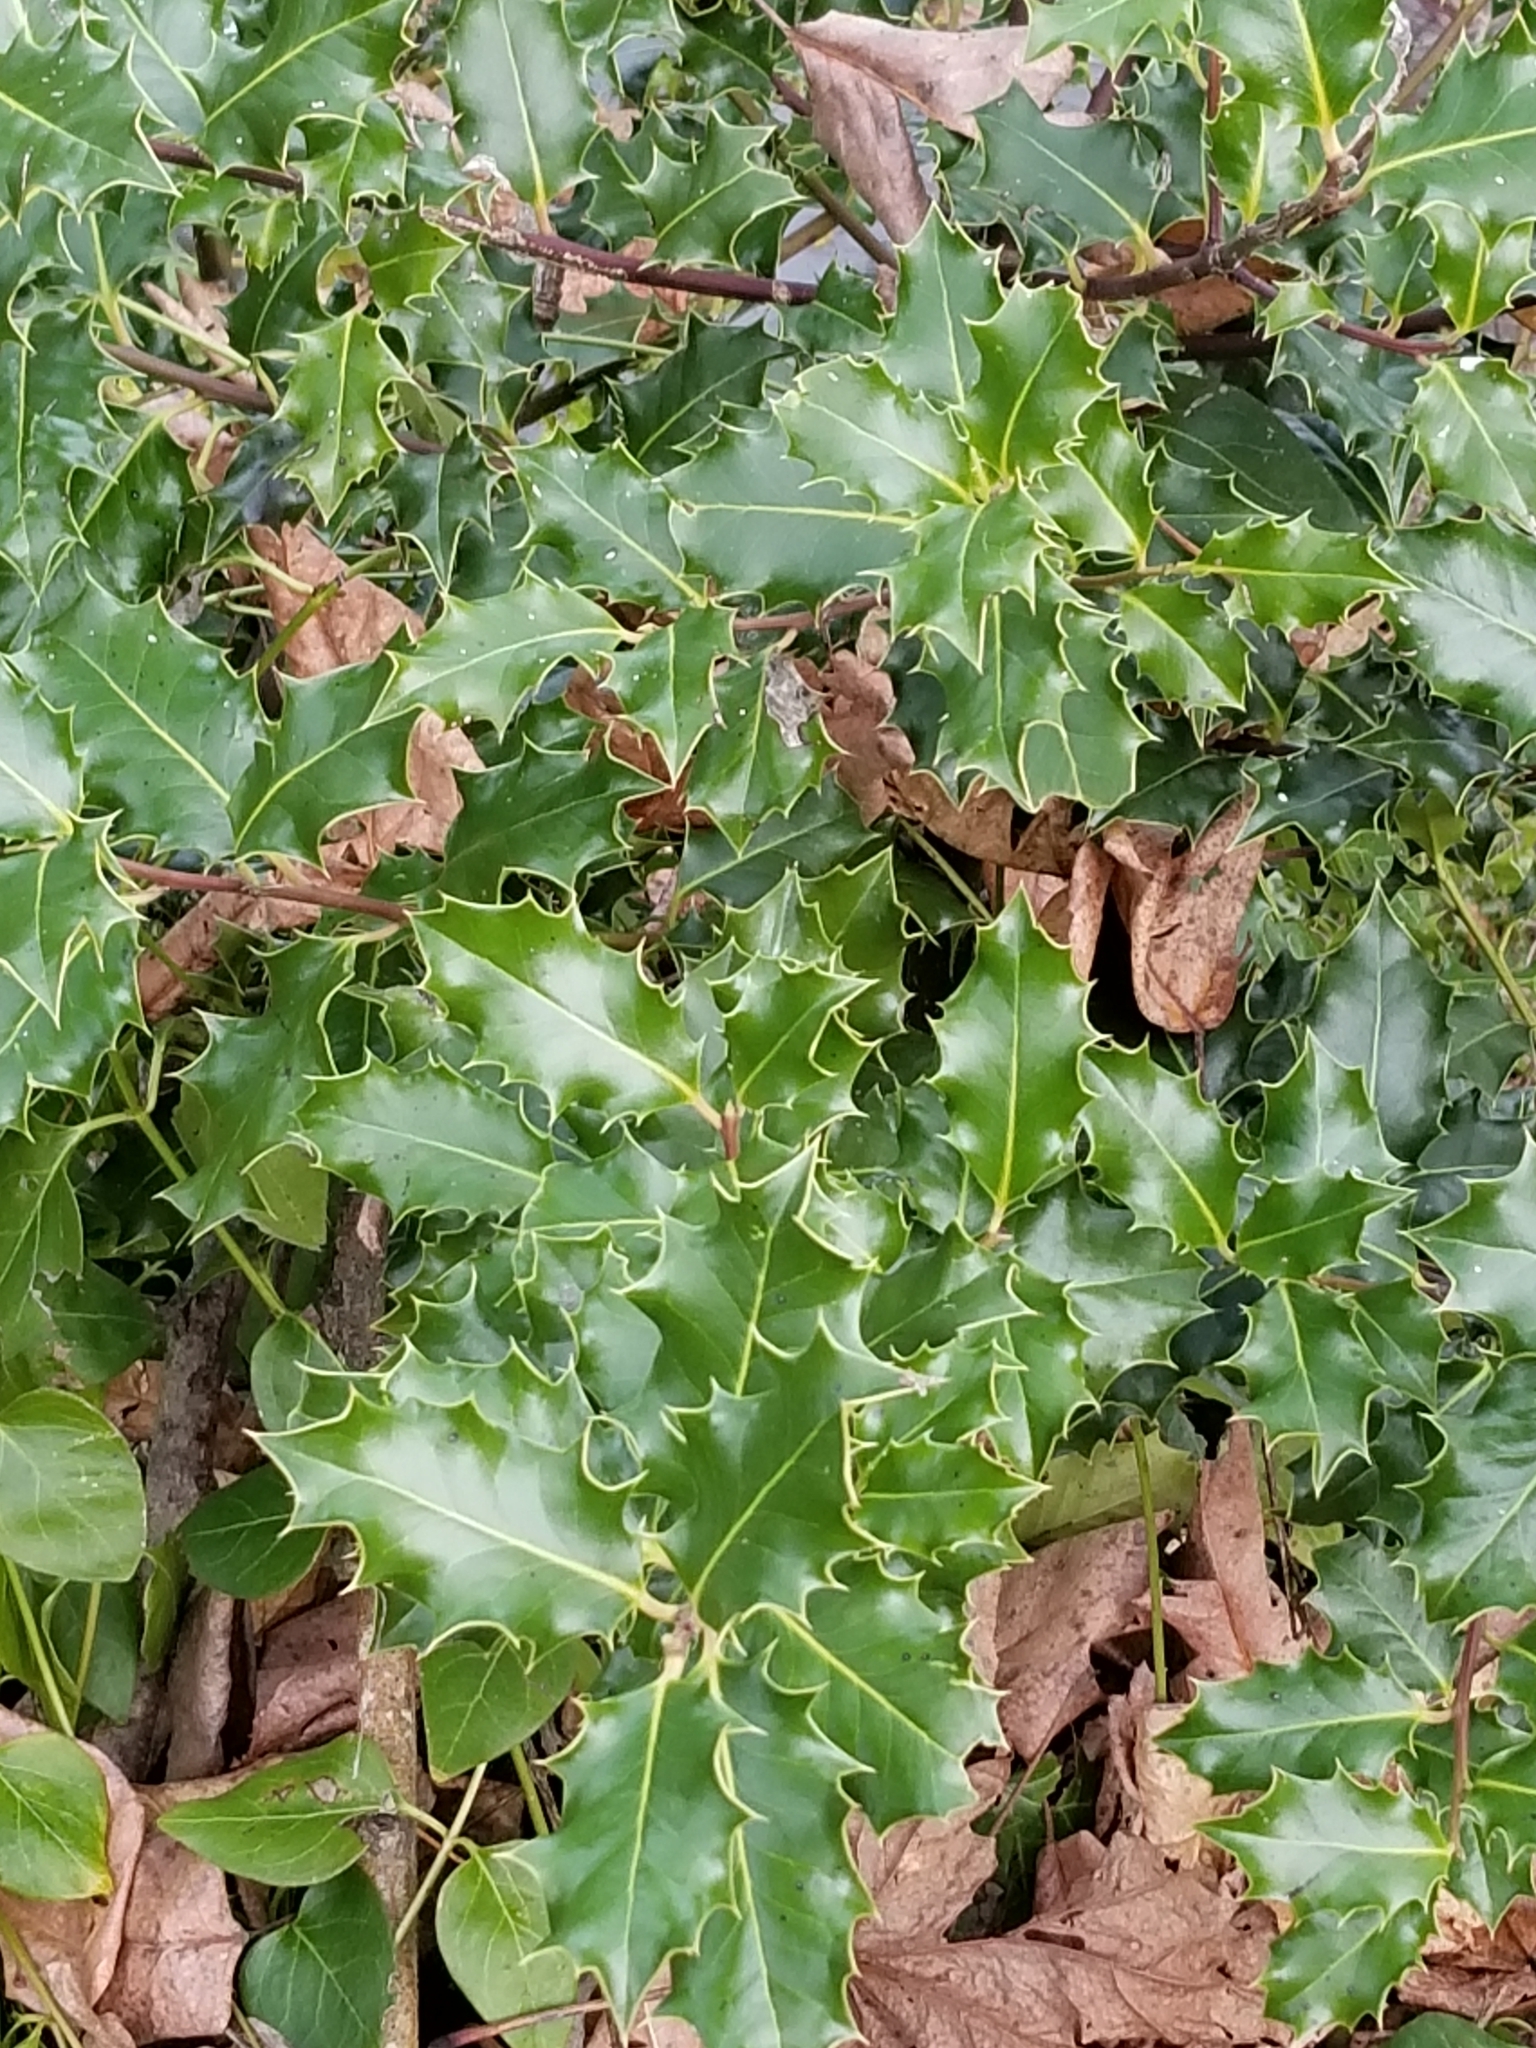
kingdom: Plantae
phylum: Tracheophyta
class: Magnoliopsida
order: Aquifoliales
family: Aquifoliaceae
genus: Ilex
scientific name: Ilex aquifolium
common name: English holly
